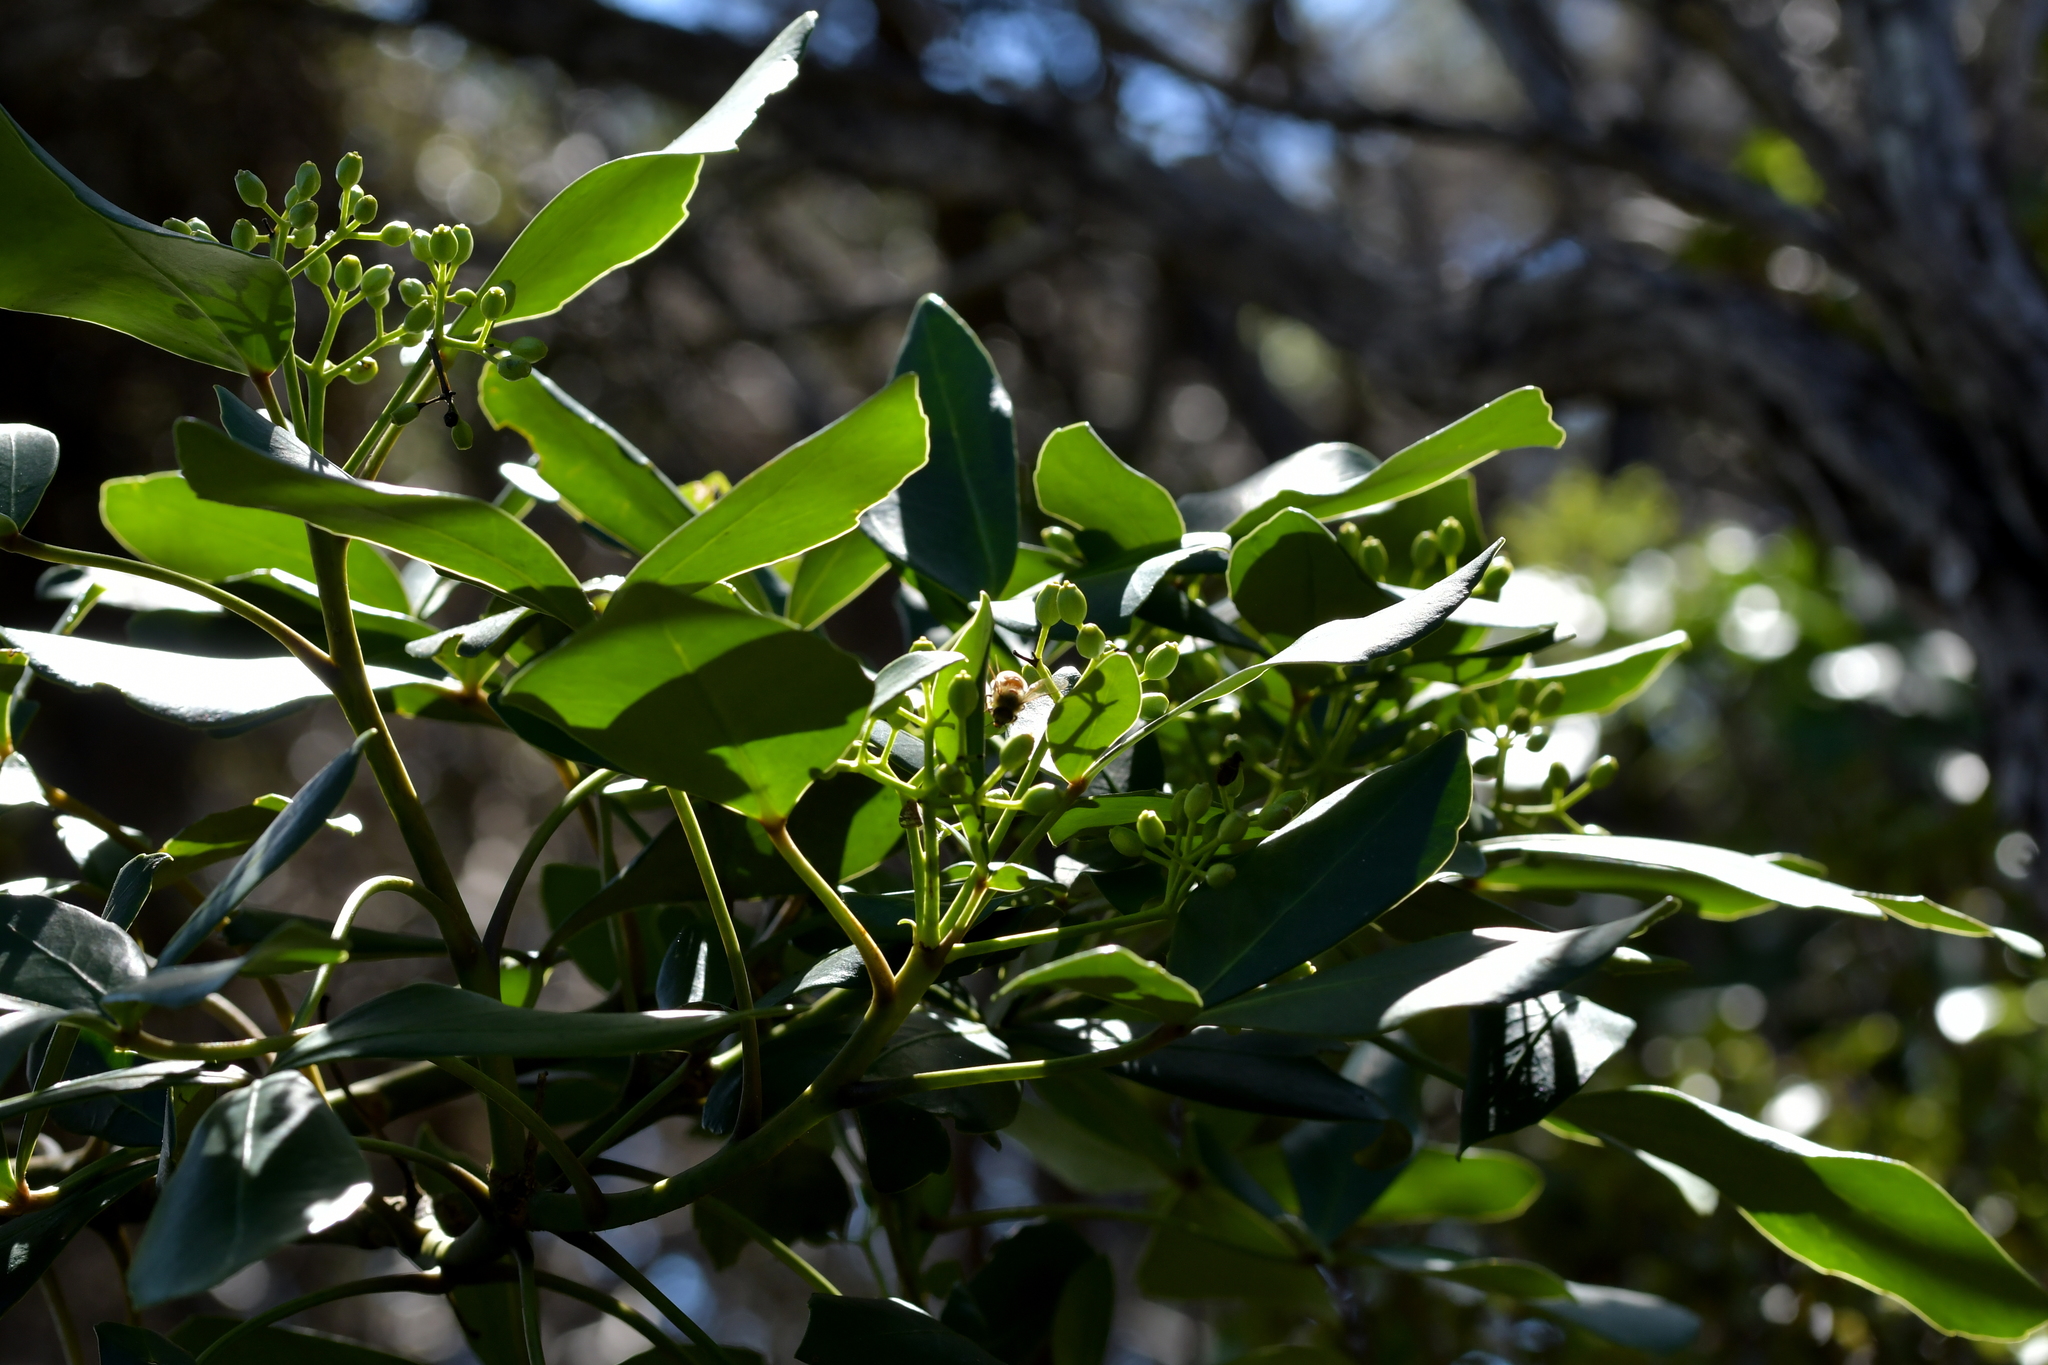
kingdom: Plantae
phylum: Tracheophyta
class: Magnoliopsida
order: Apiales
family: Araliaceae
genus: Pseudopanax
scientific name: Pseudopanax lessonii
